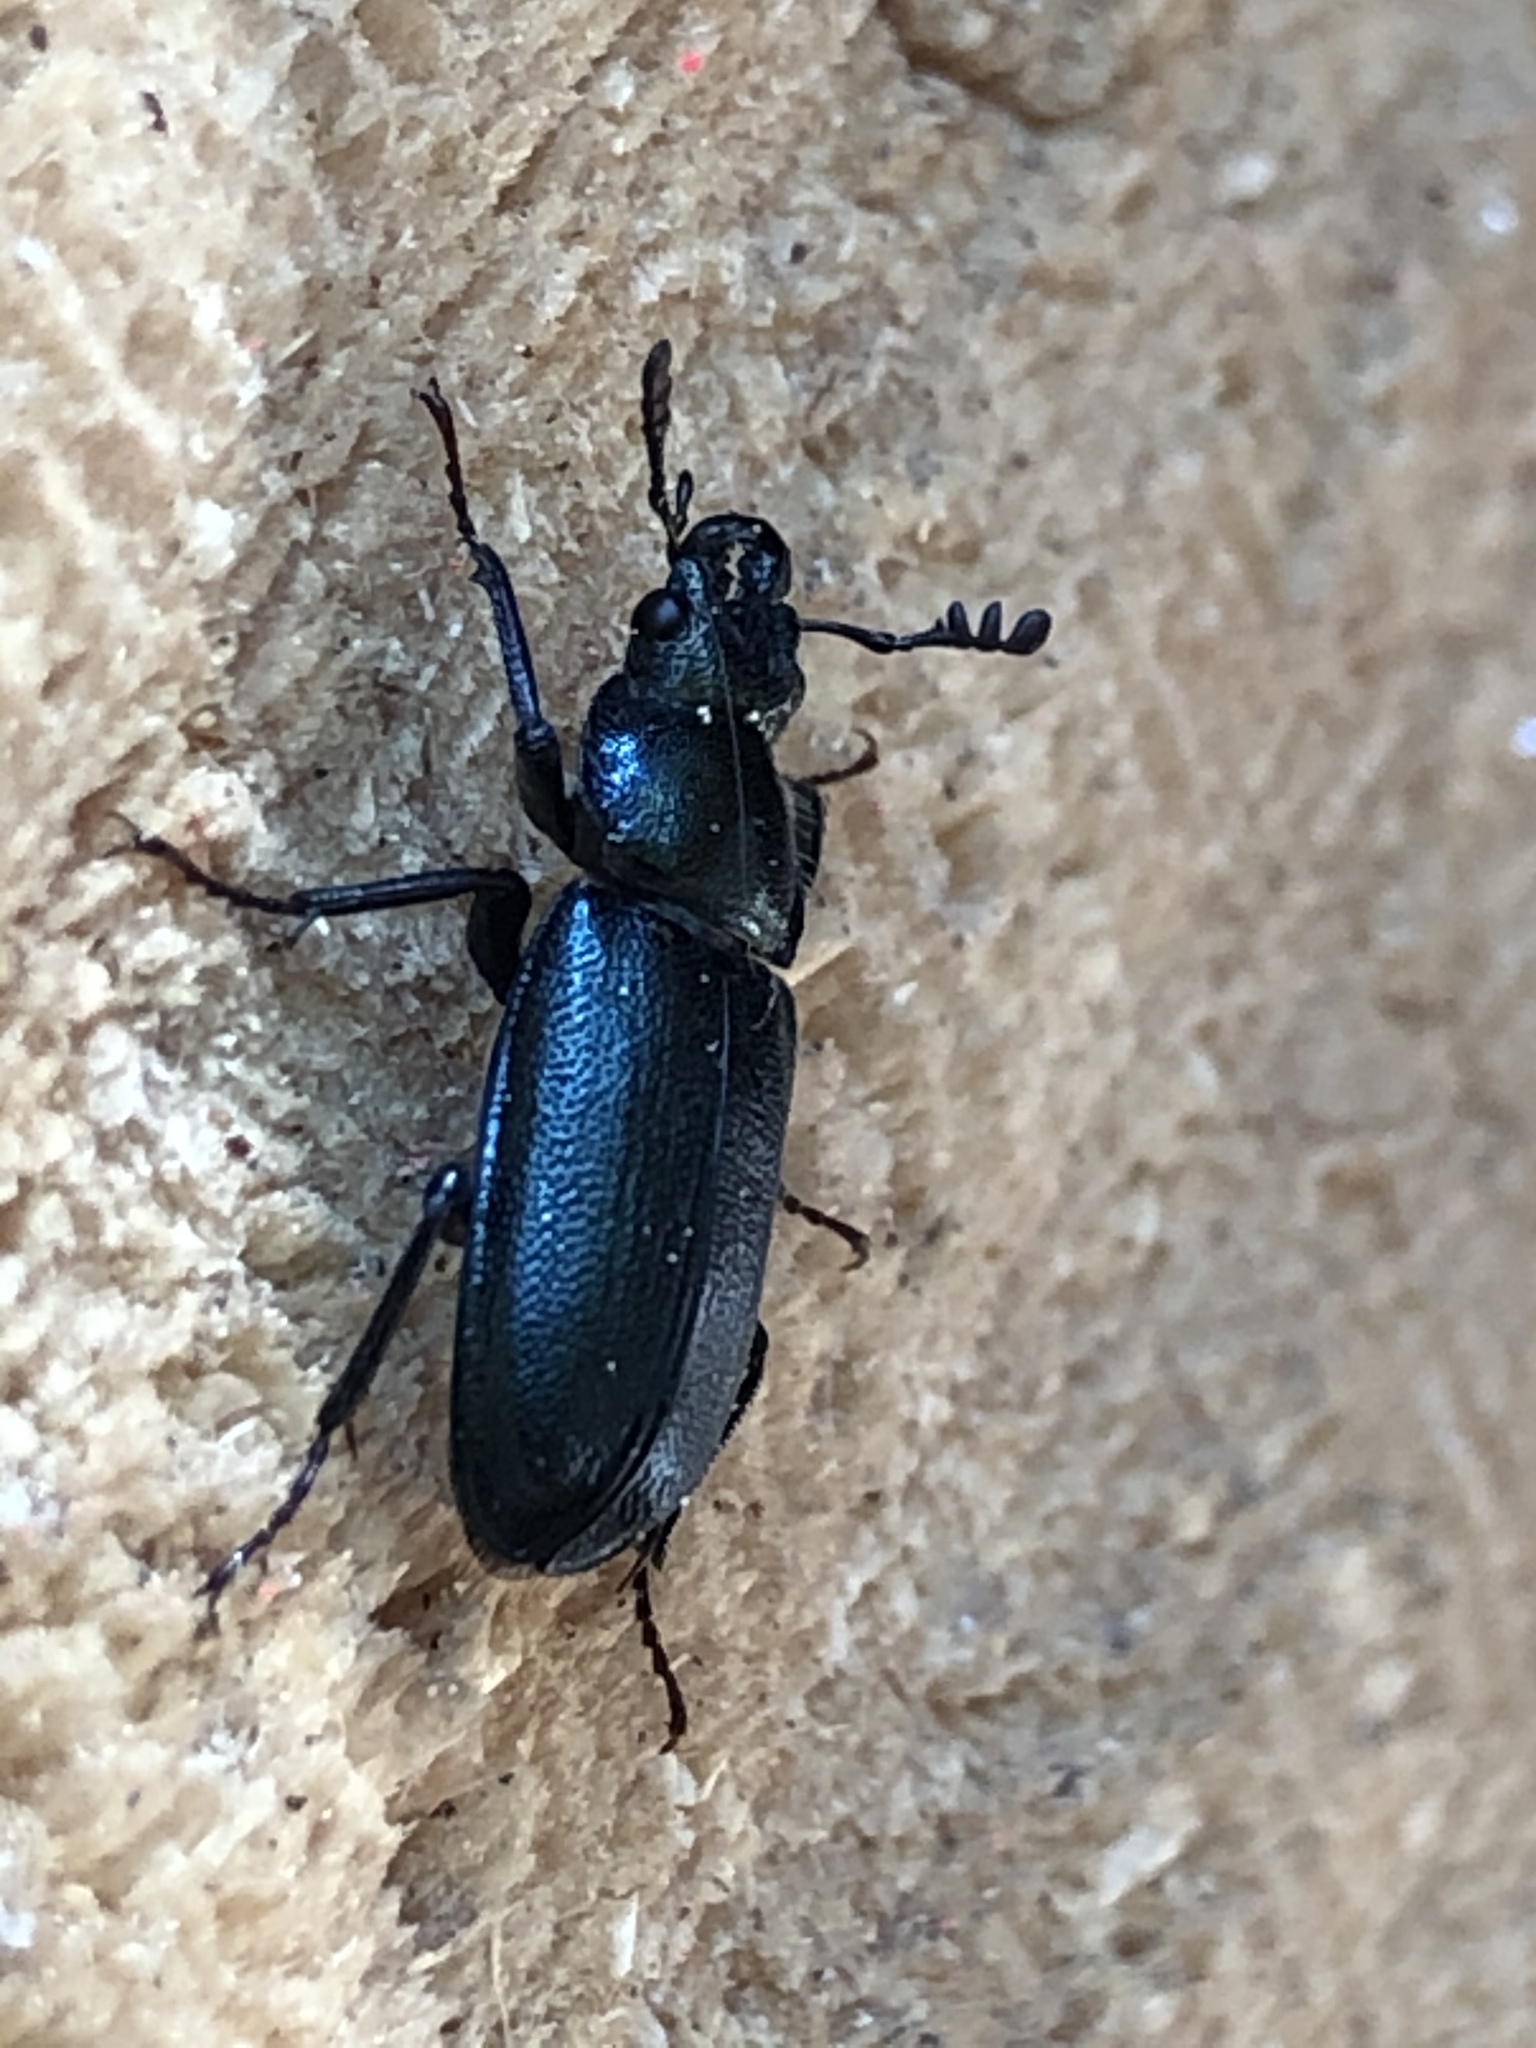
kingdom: Animalia
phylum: Arthropoda
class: Insecta
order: Coleoptera
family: Lucanidae
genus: Platycerus
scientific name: Platycerus caraboides
